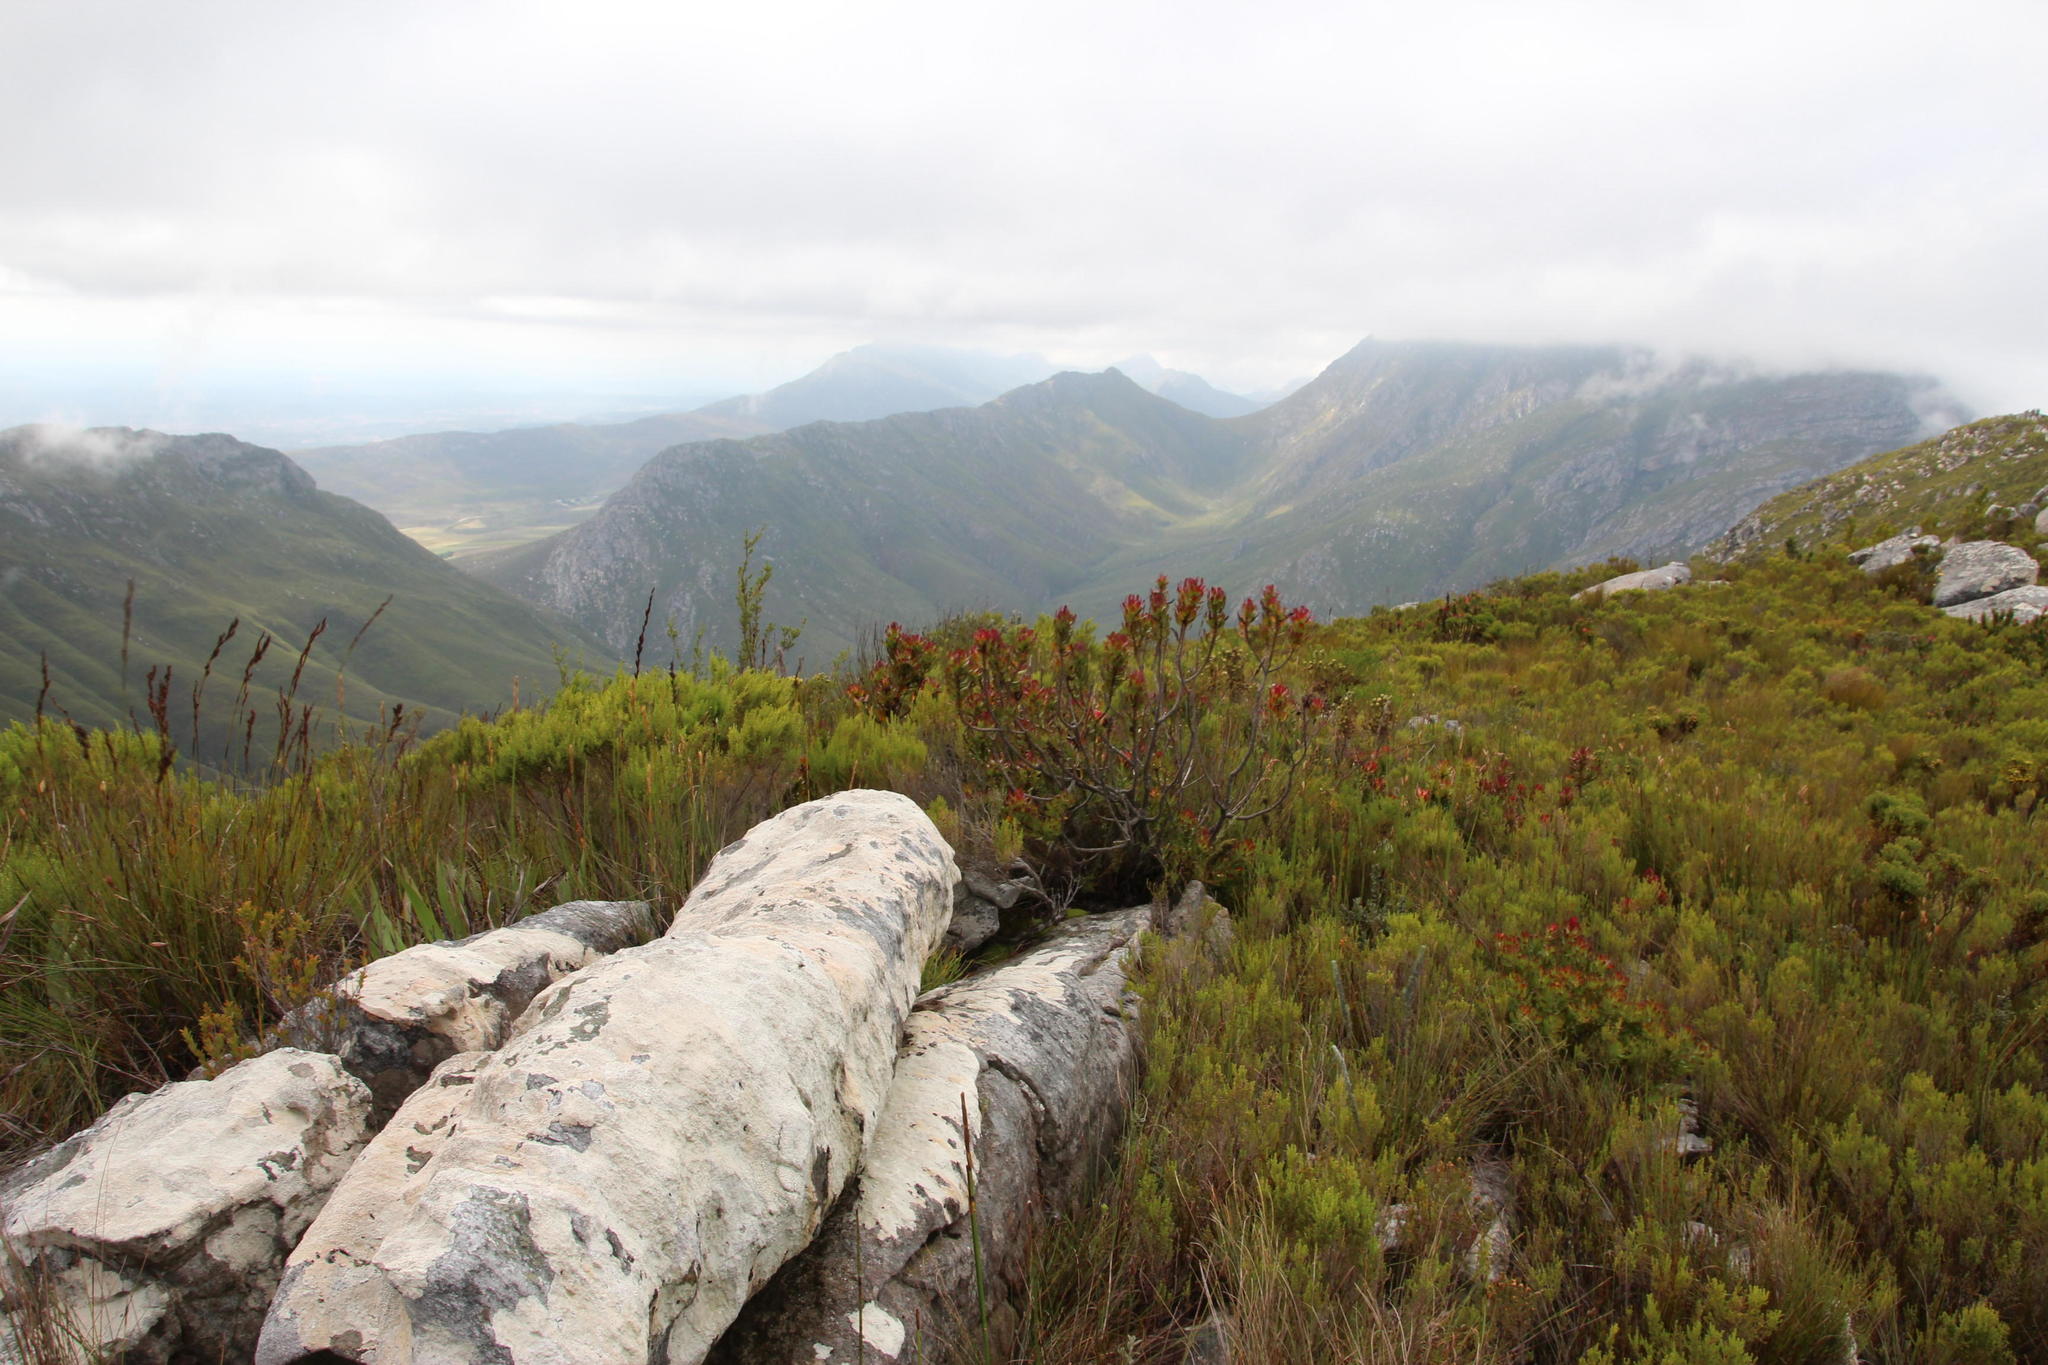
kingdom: Plantae
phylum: Tracheophyta
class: Magnoliopsida
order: Proteales
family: Proteaceae
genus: Mimetes
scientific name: Mimetes cucullatus
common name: Common pagoda
